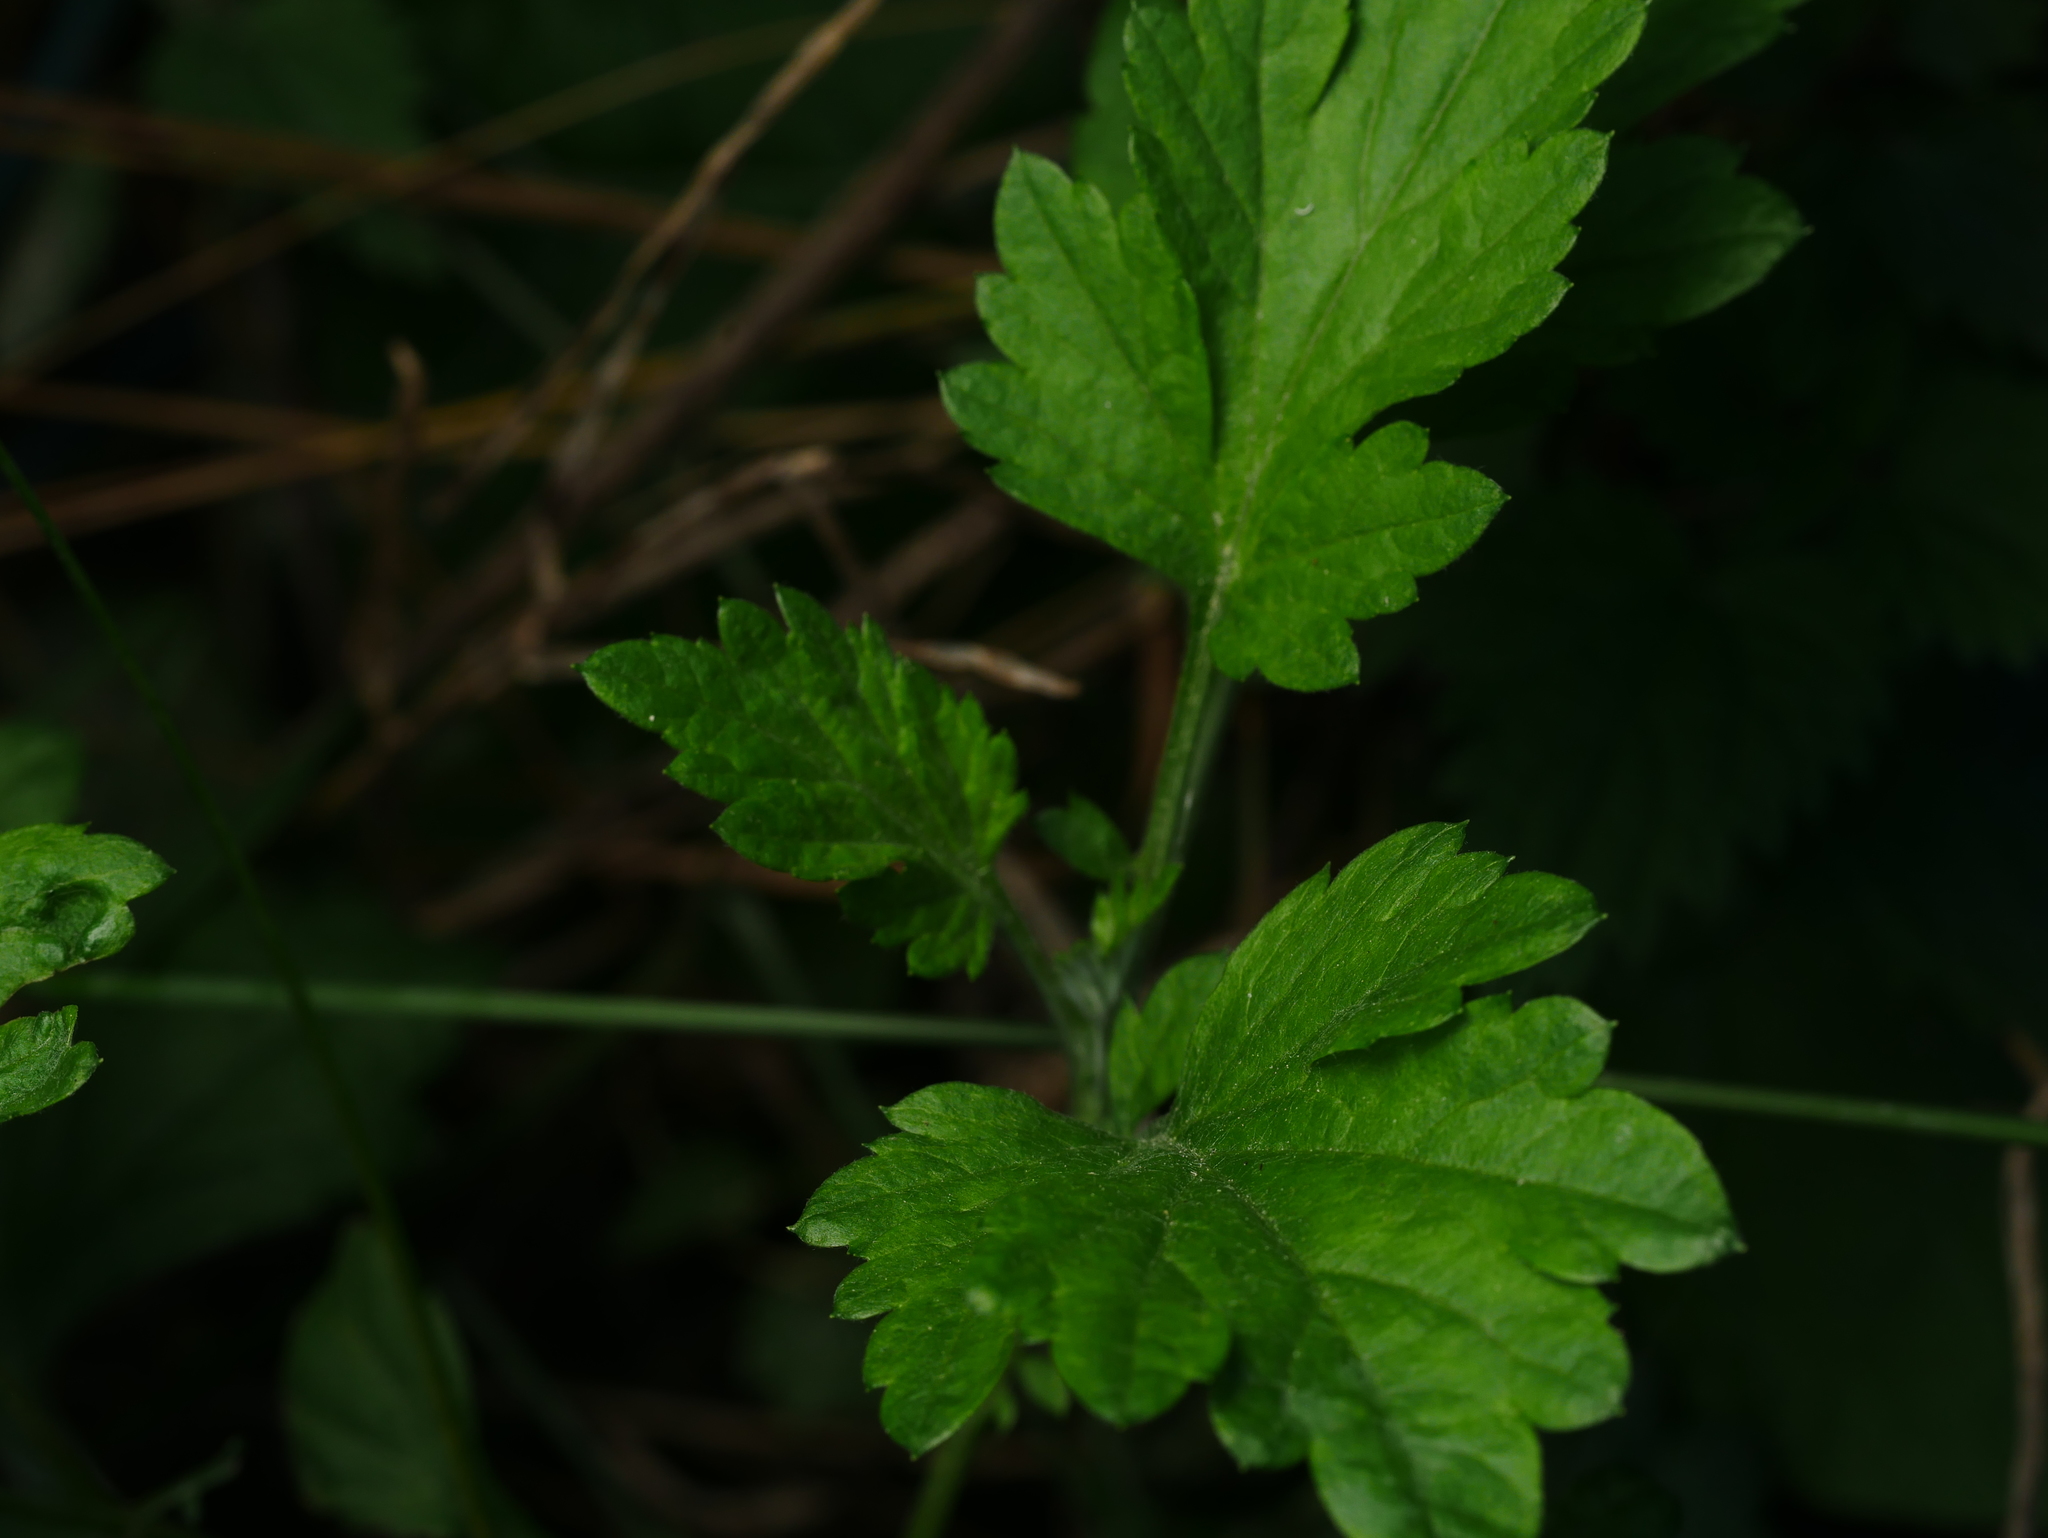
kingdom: Plantae
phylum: Tracheophyta
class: Magnoliopsida
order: Asterales
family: Asteraceae
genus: Artemisia
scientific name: Artemisia vulgaris
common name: Mugwort
